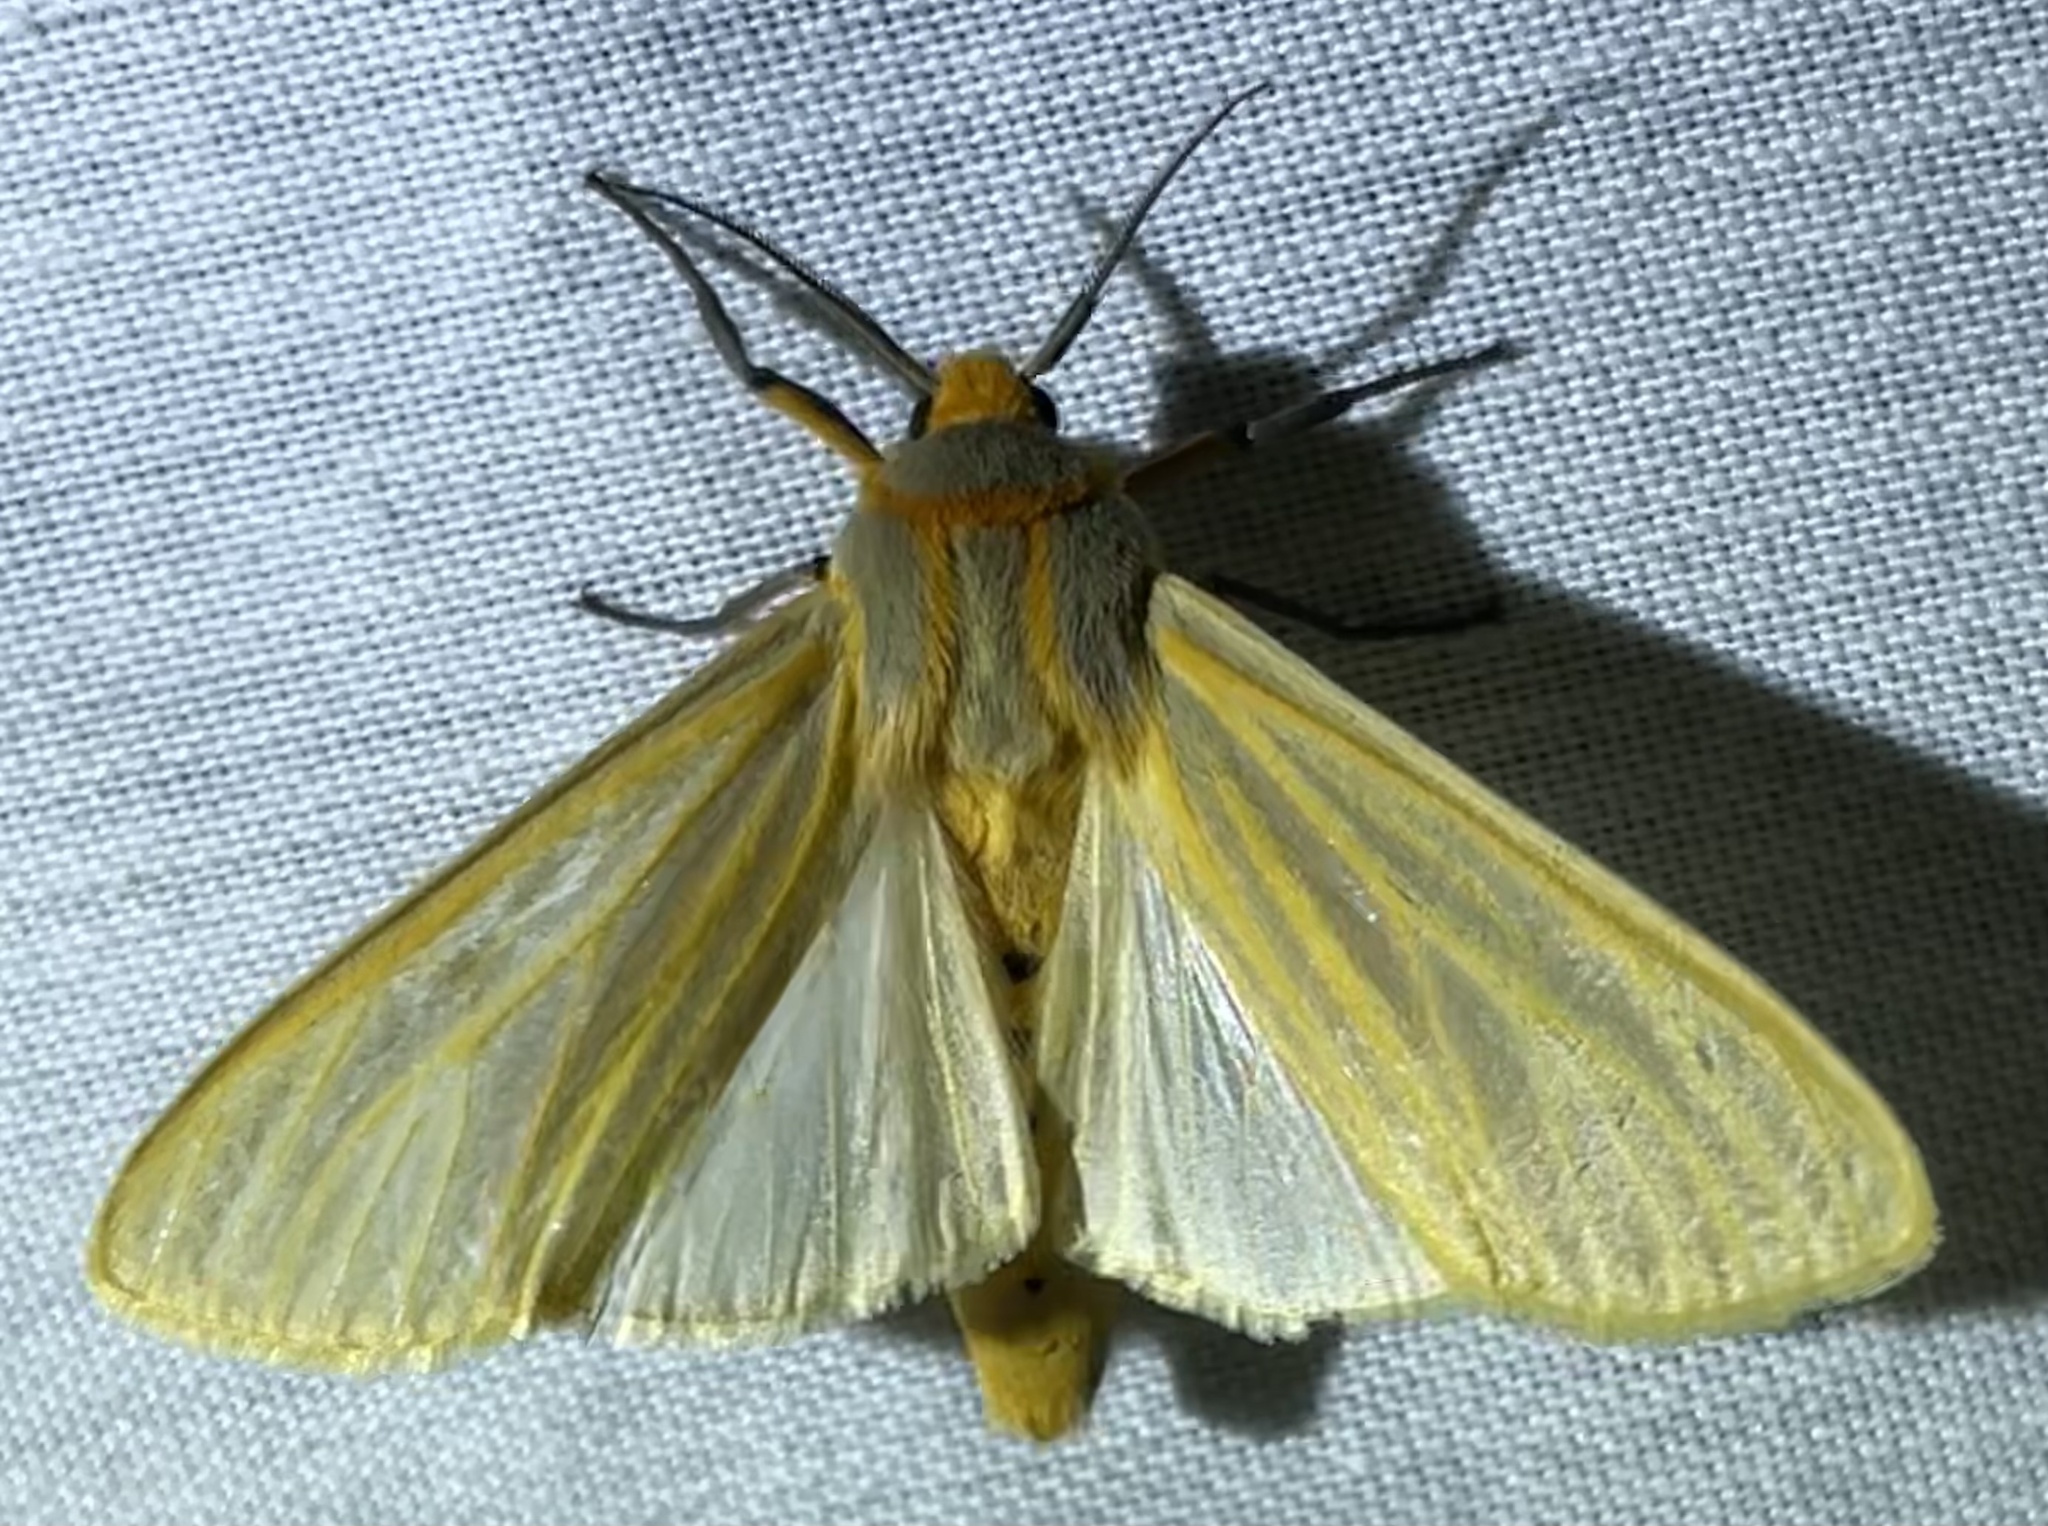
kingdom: Animalia
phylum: Arthropoda
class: Insecta
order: Lepidoptera
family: Erebidae
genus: Afromurzinia
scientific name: Afromurzinia lutescens
